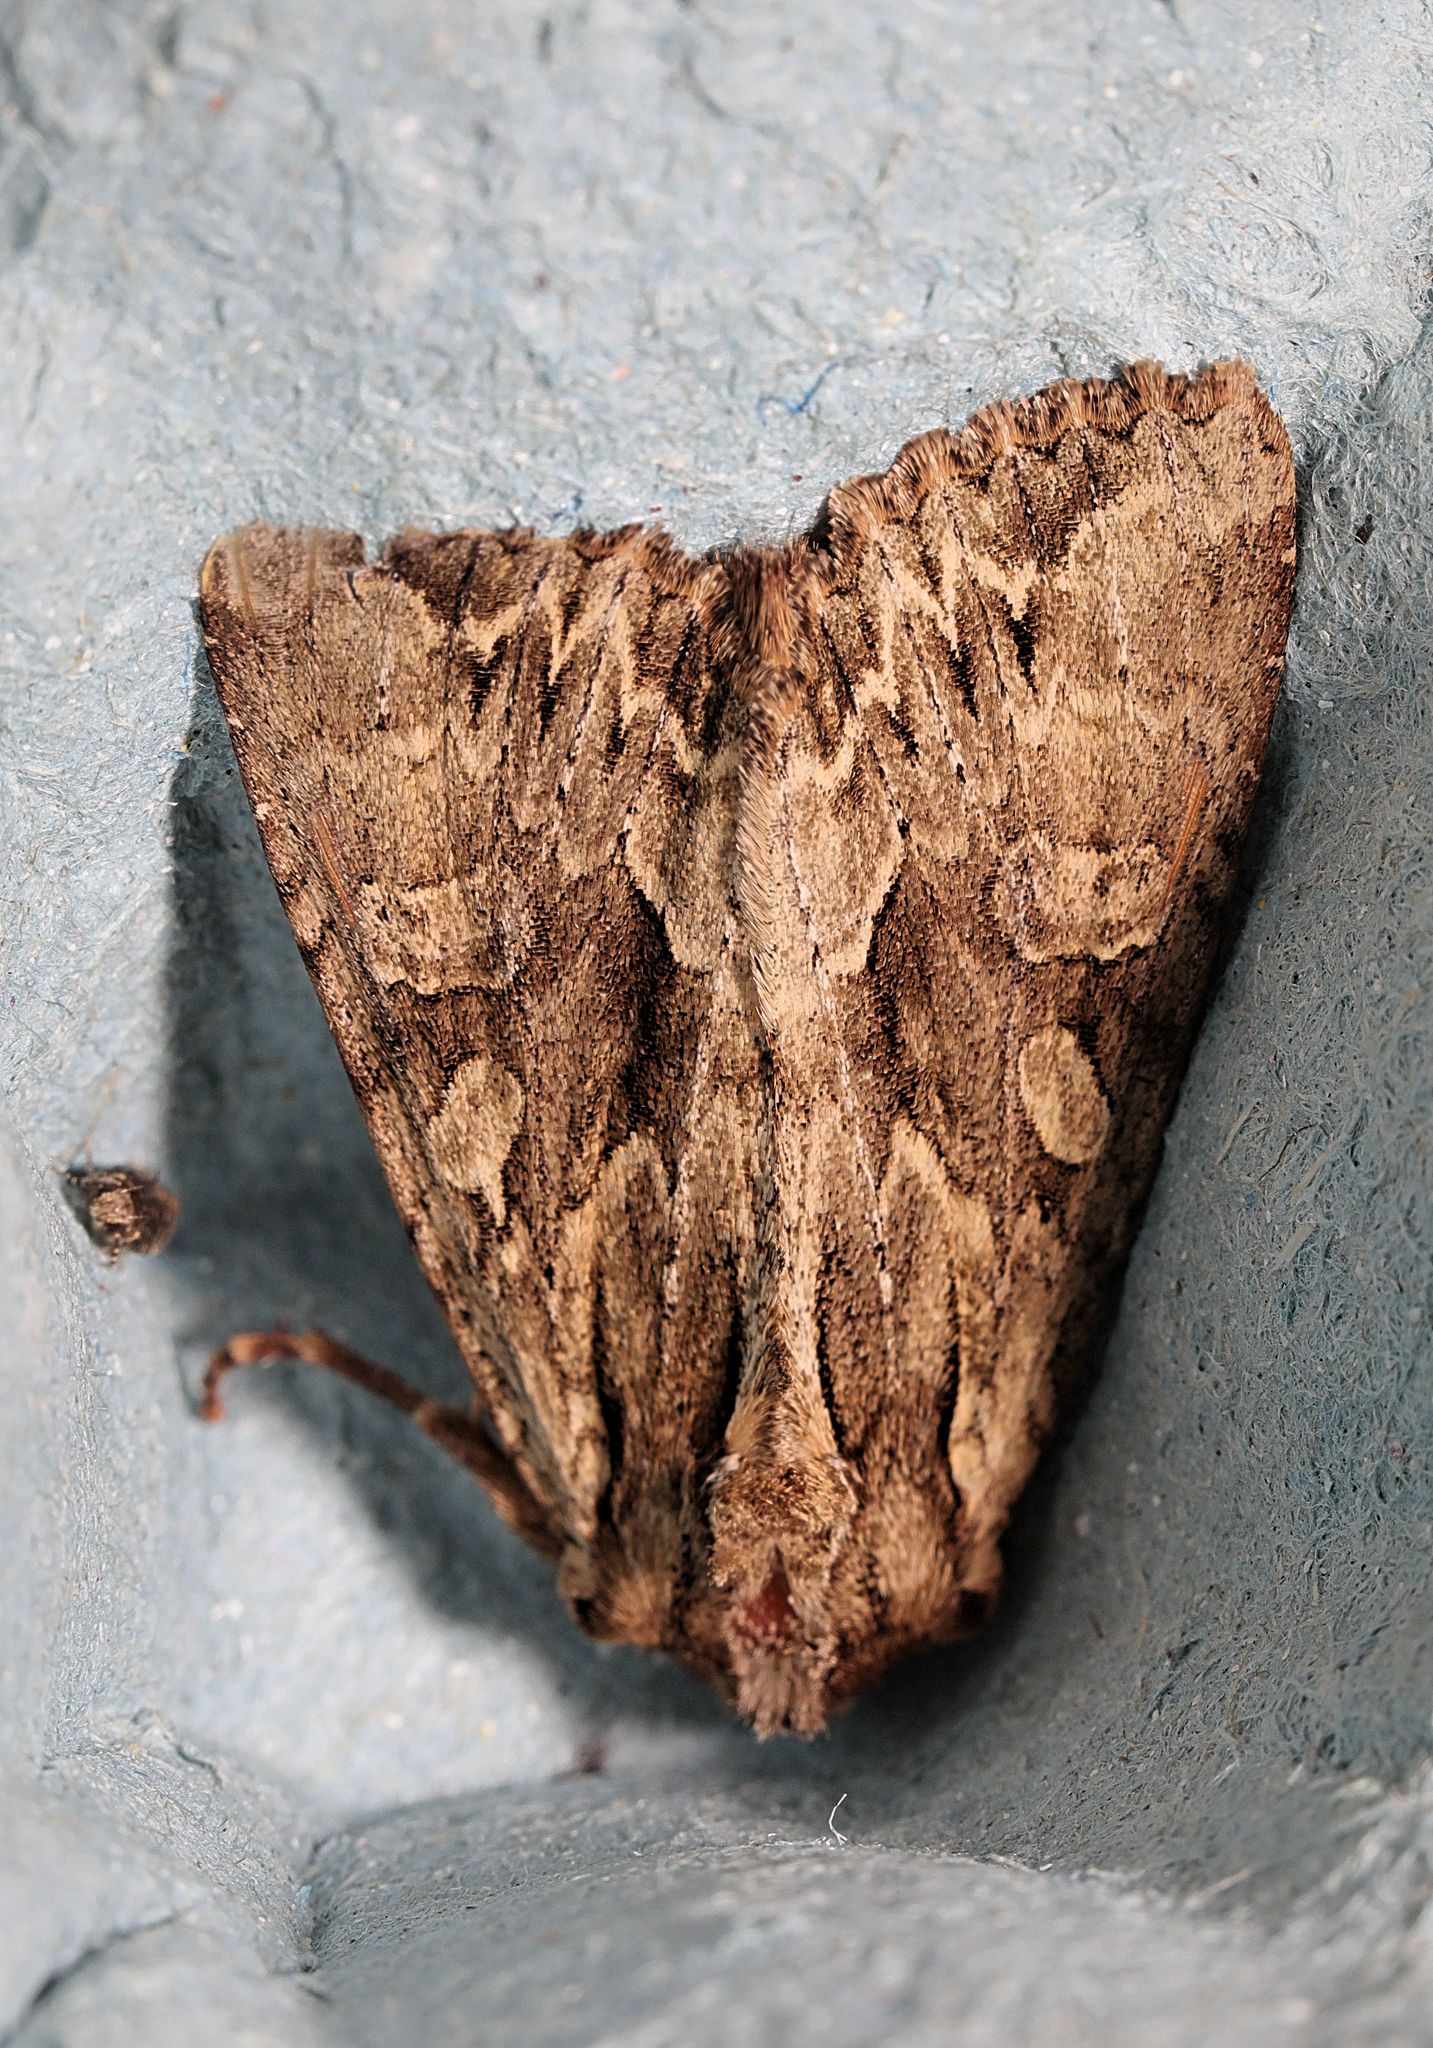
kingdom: Animalia
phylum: Arthropoda
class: Insecta
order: Lepidoptera
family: Noctuidae
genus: Apamea
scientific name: Apamea monoglypha
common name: Dark arches
